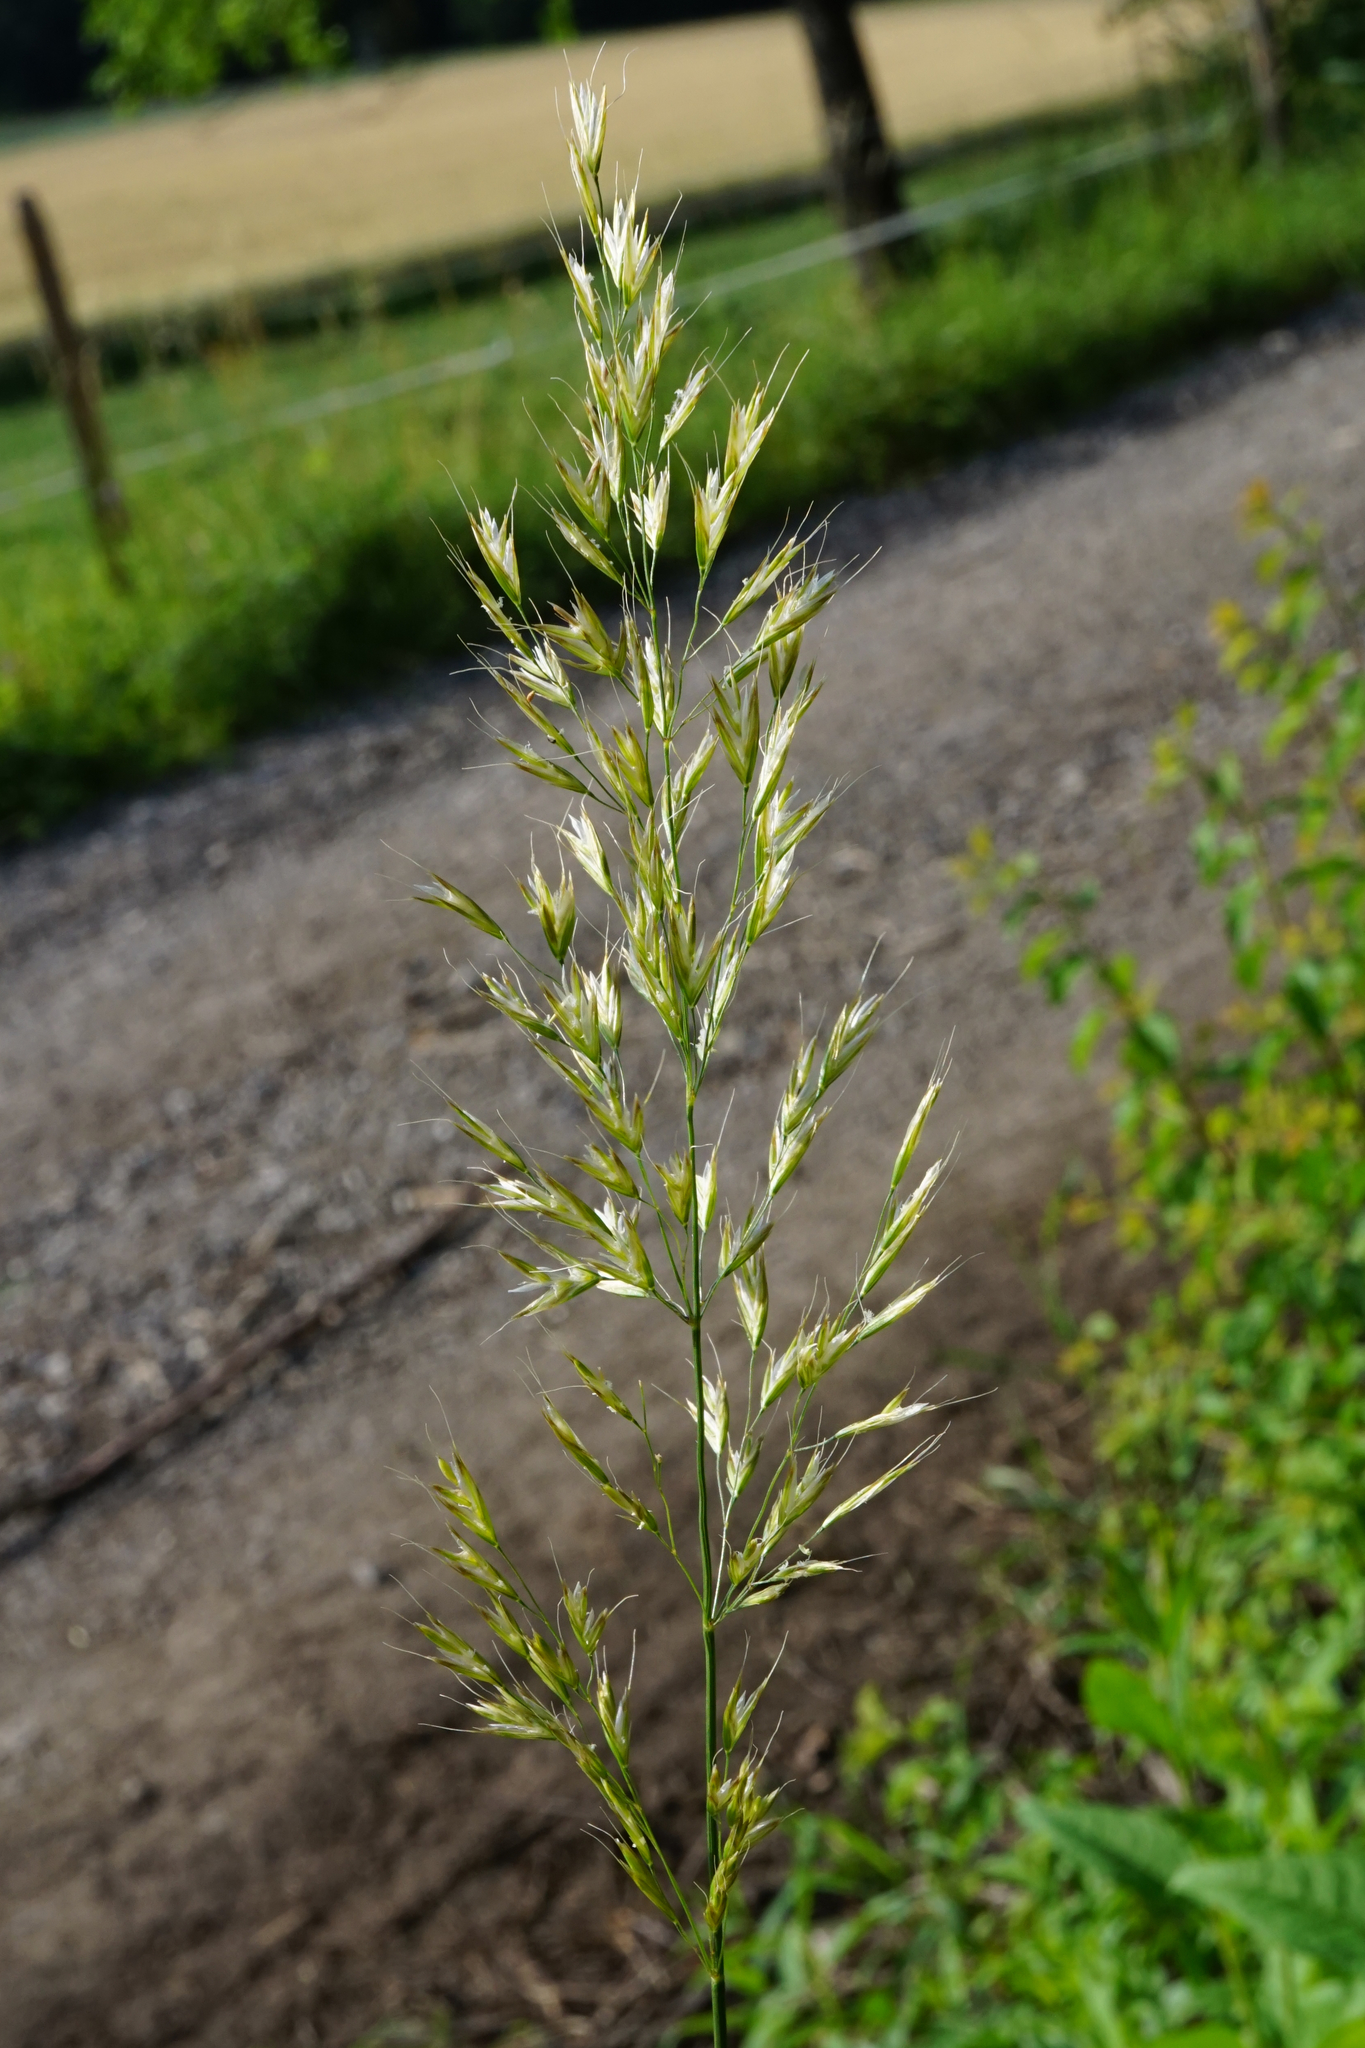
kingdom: Plantae
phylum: Tracheophyta
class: Liliopsida
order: Poales
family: Poaceae
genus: Trisetum
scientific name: Trisetum flavescens
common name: Yellow oat-grass
